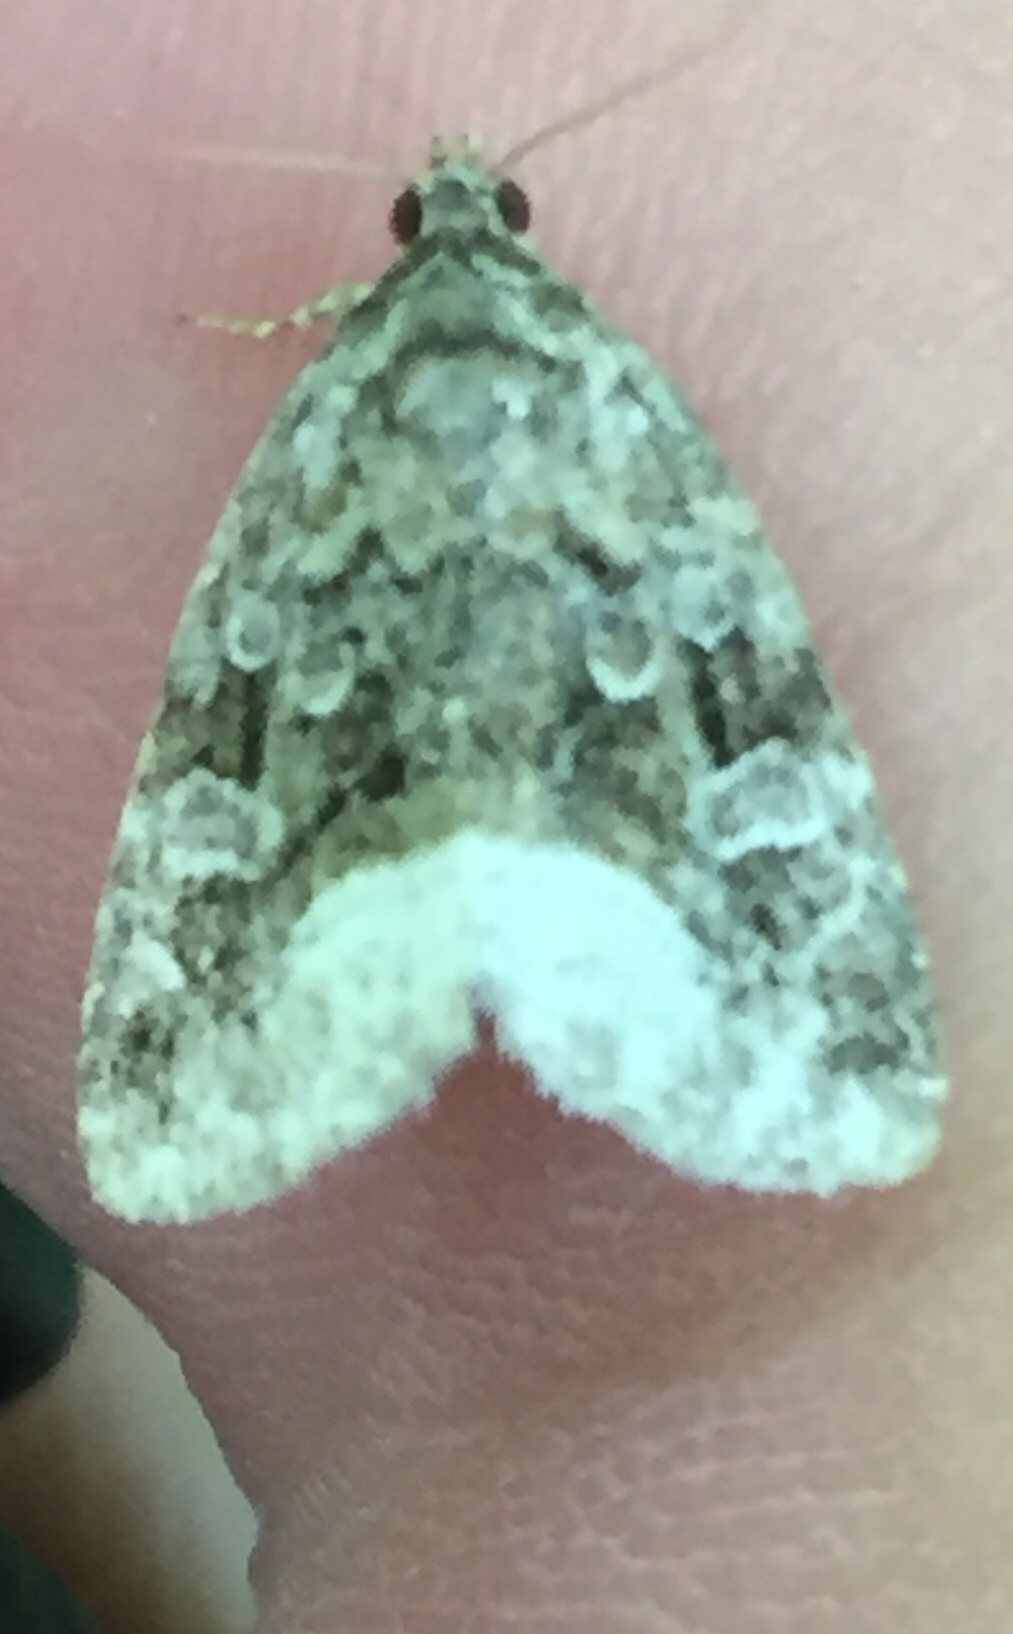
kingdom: Animalia
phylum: Arthropoda
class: Insecta
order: Lepidoptera
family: Noctuidae
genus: Protodeltote
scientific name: Protodeltote muscosula
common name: Large mossy glyph
